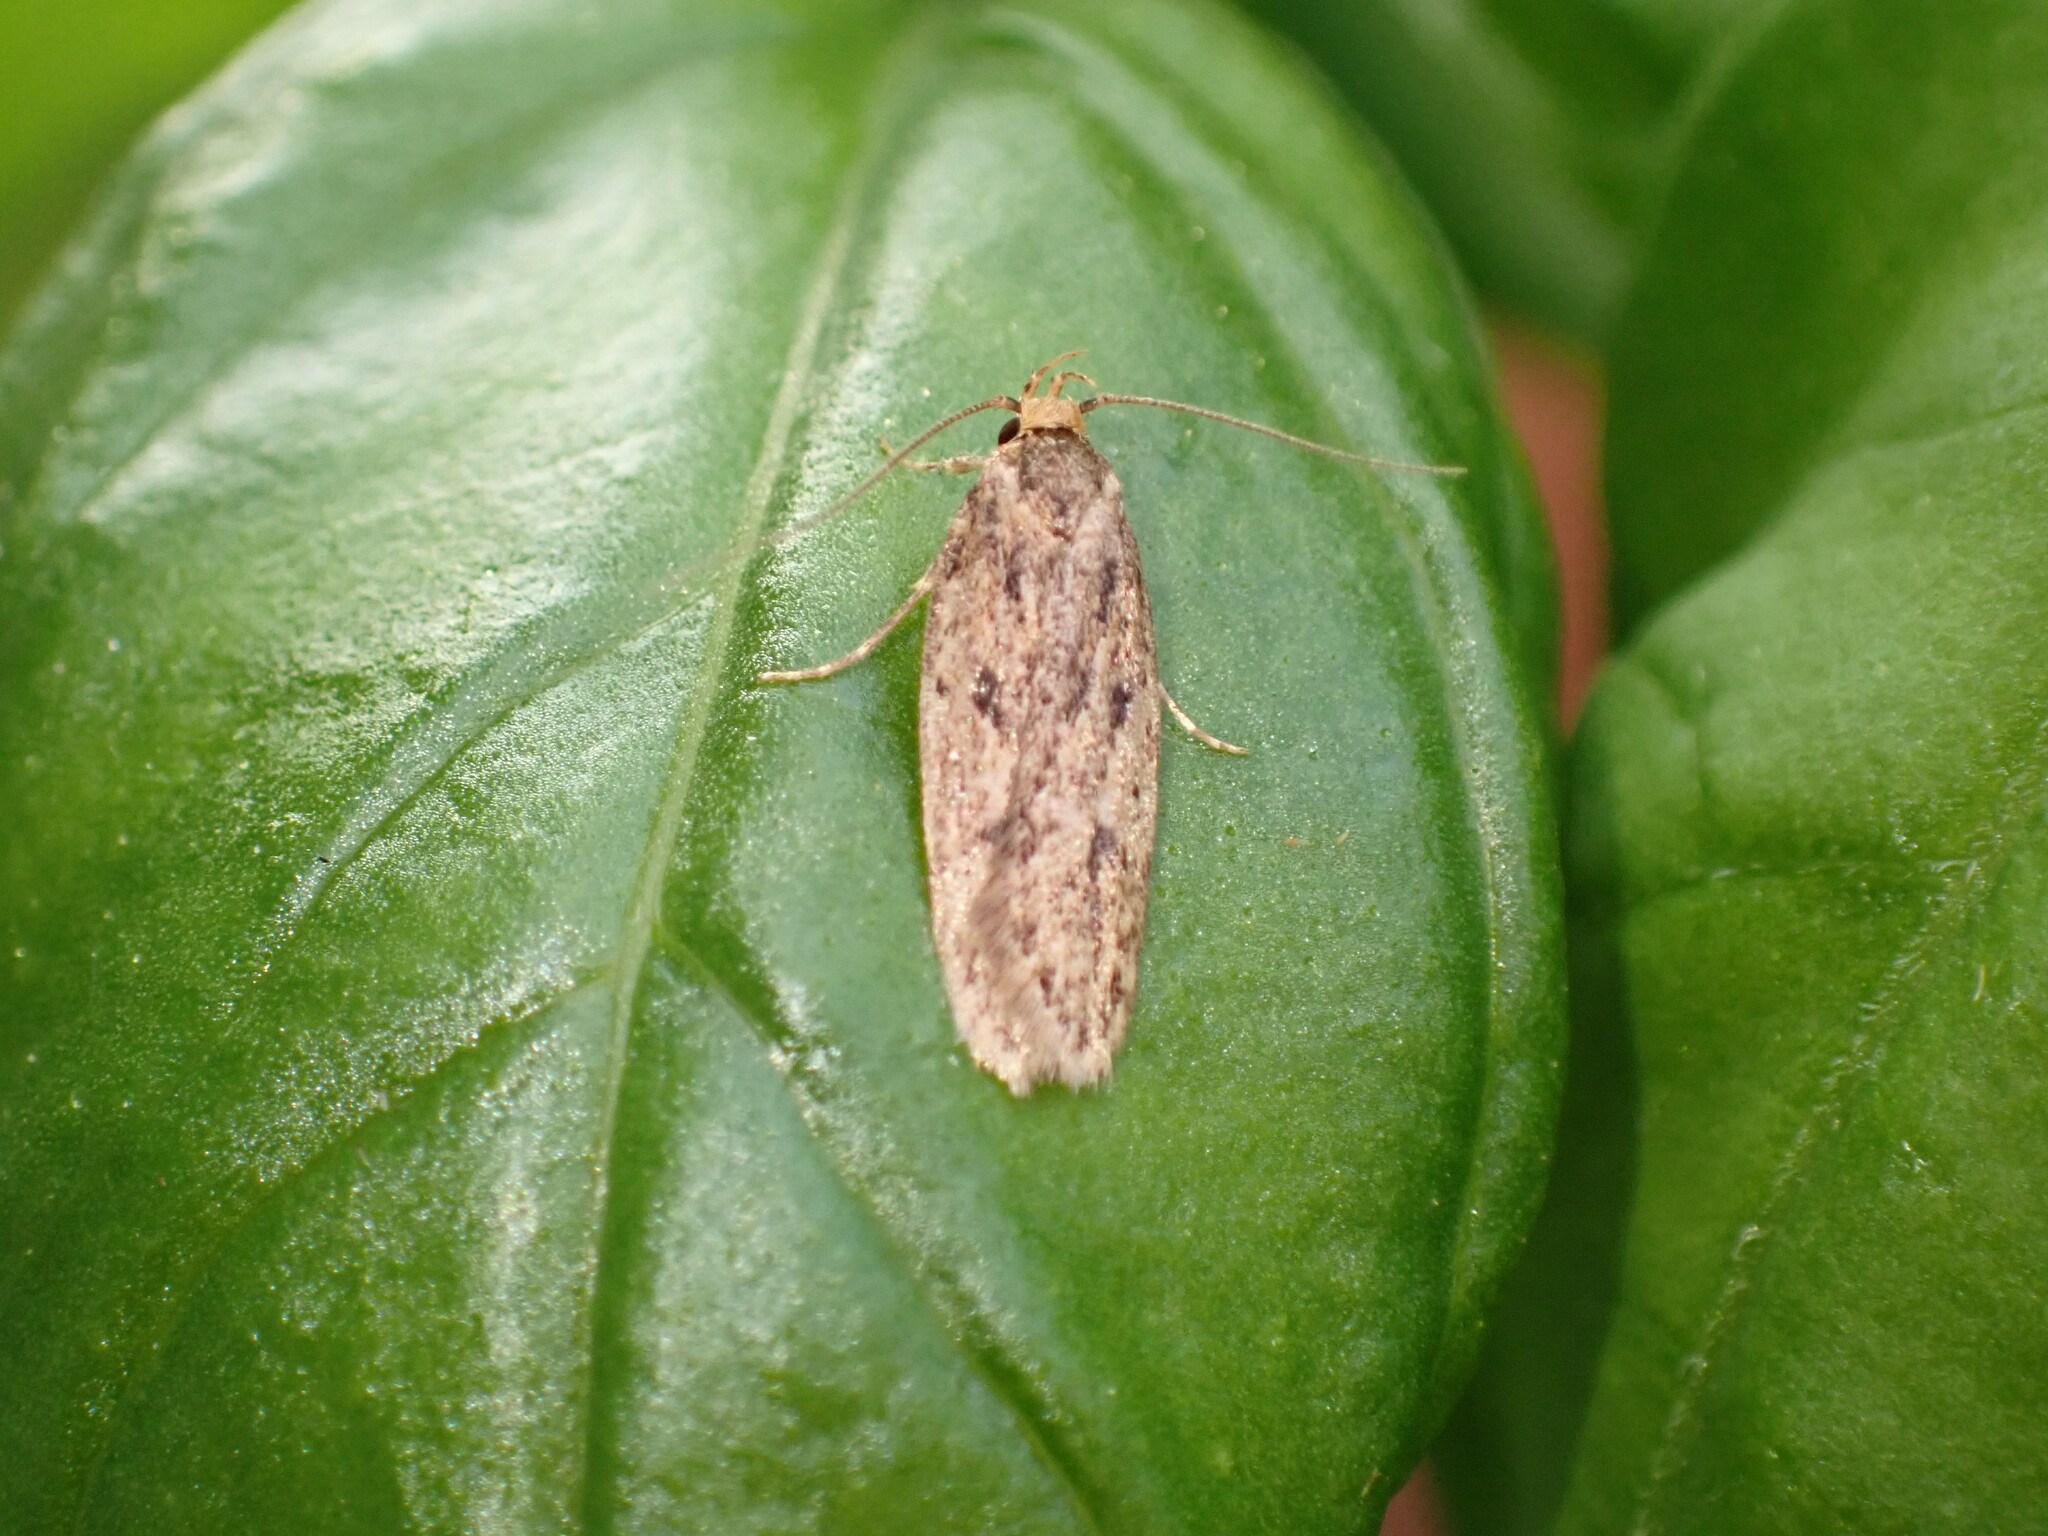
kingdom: Animalia
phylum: Arthropoda
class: Insecta
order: Lepidoptera
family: Oecophoridae
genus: Hofmannophila
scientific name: Hofmannophila pseudospretella
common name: Brown house moth
